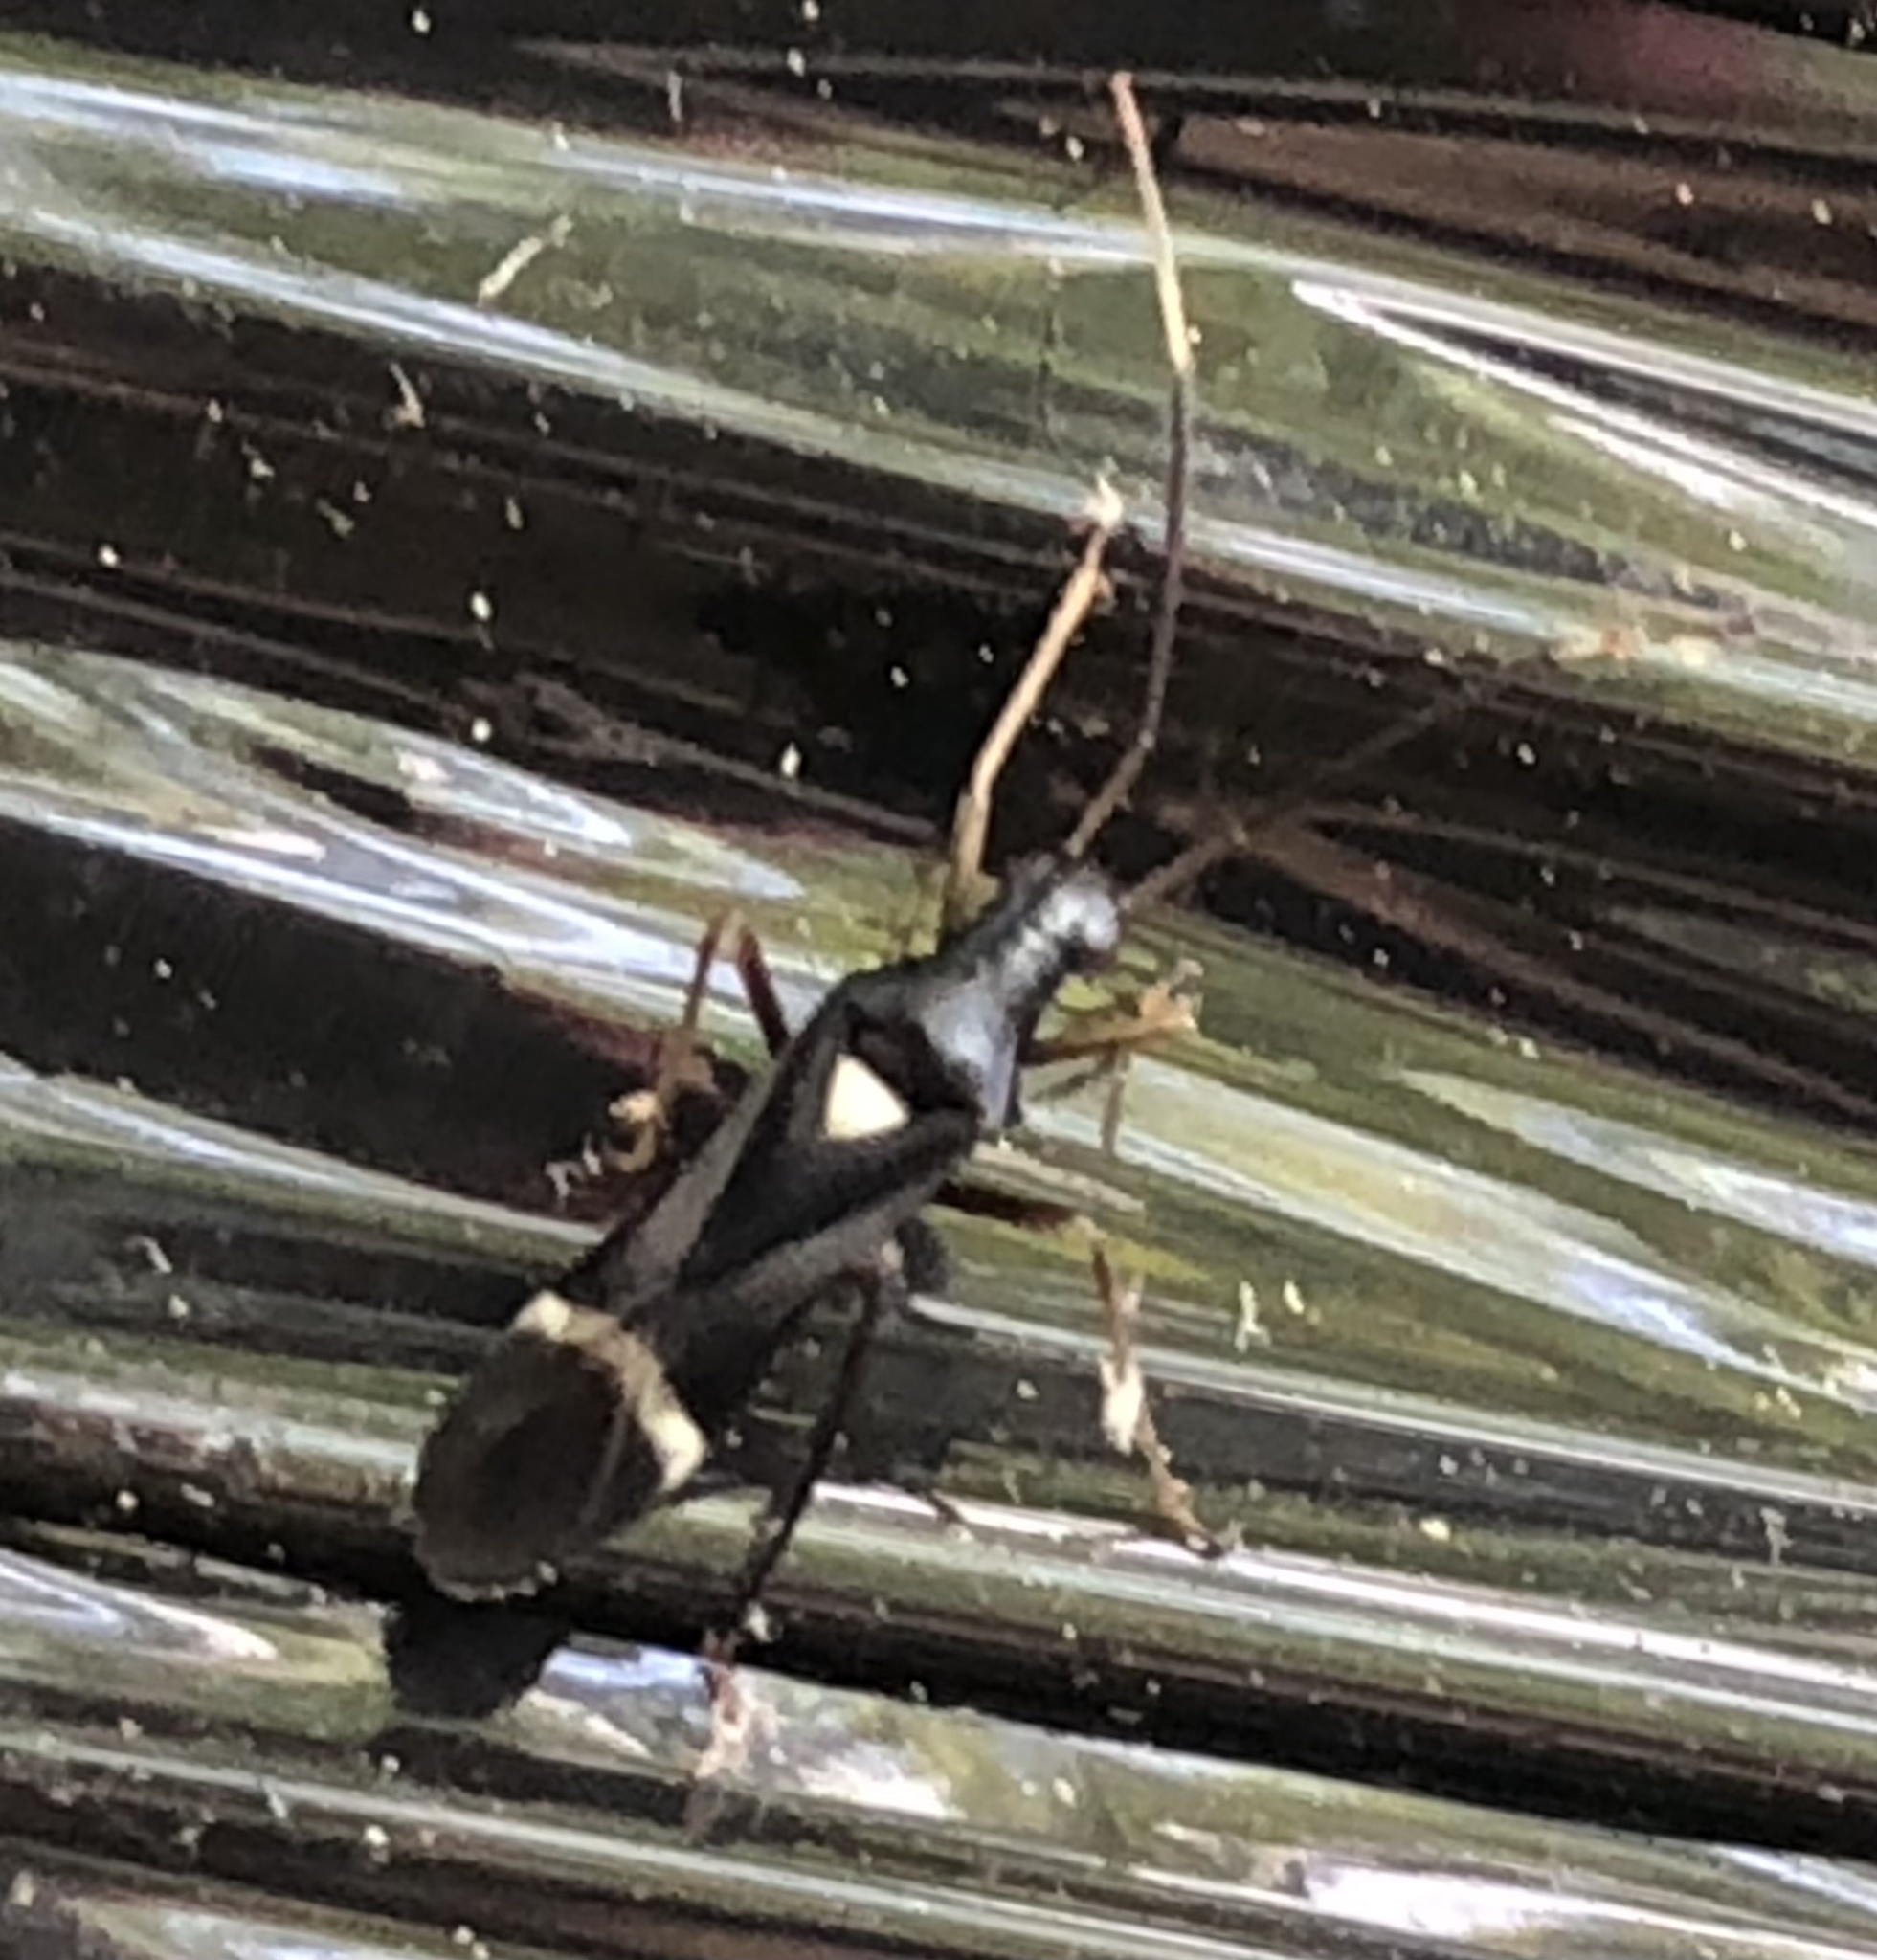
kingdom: Animalia
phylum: Arthropoda
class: Insecta
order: Hemiptera
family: Miridae
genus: Pseudoxenetus
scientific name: Pseudoxenetus regalis
